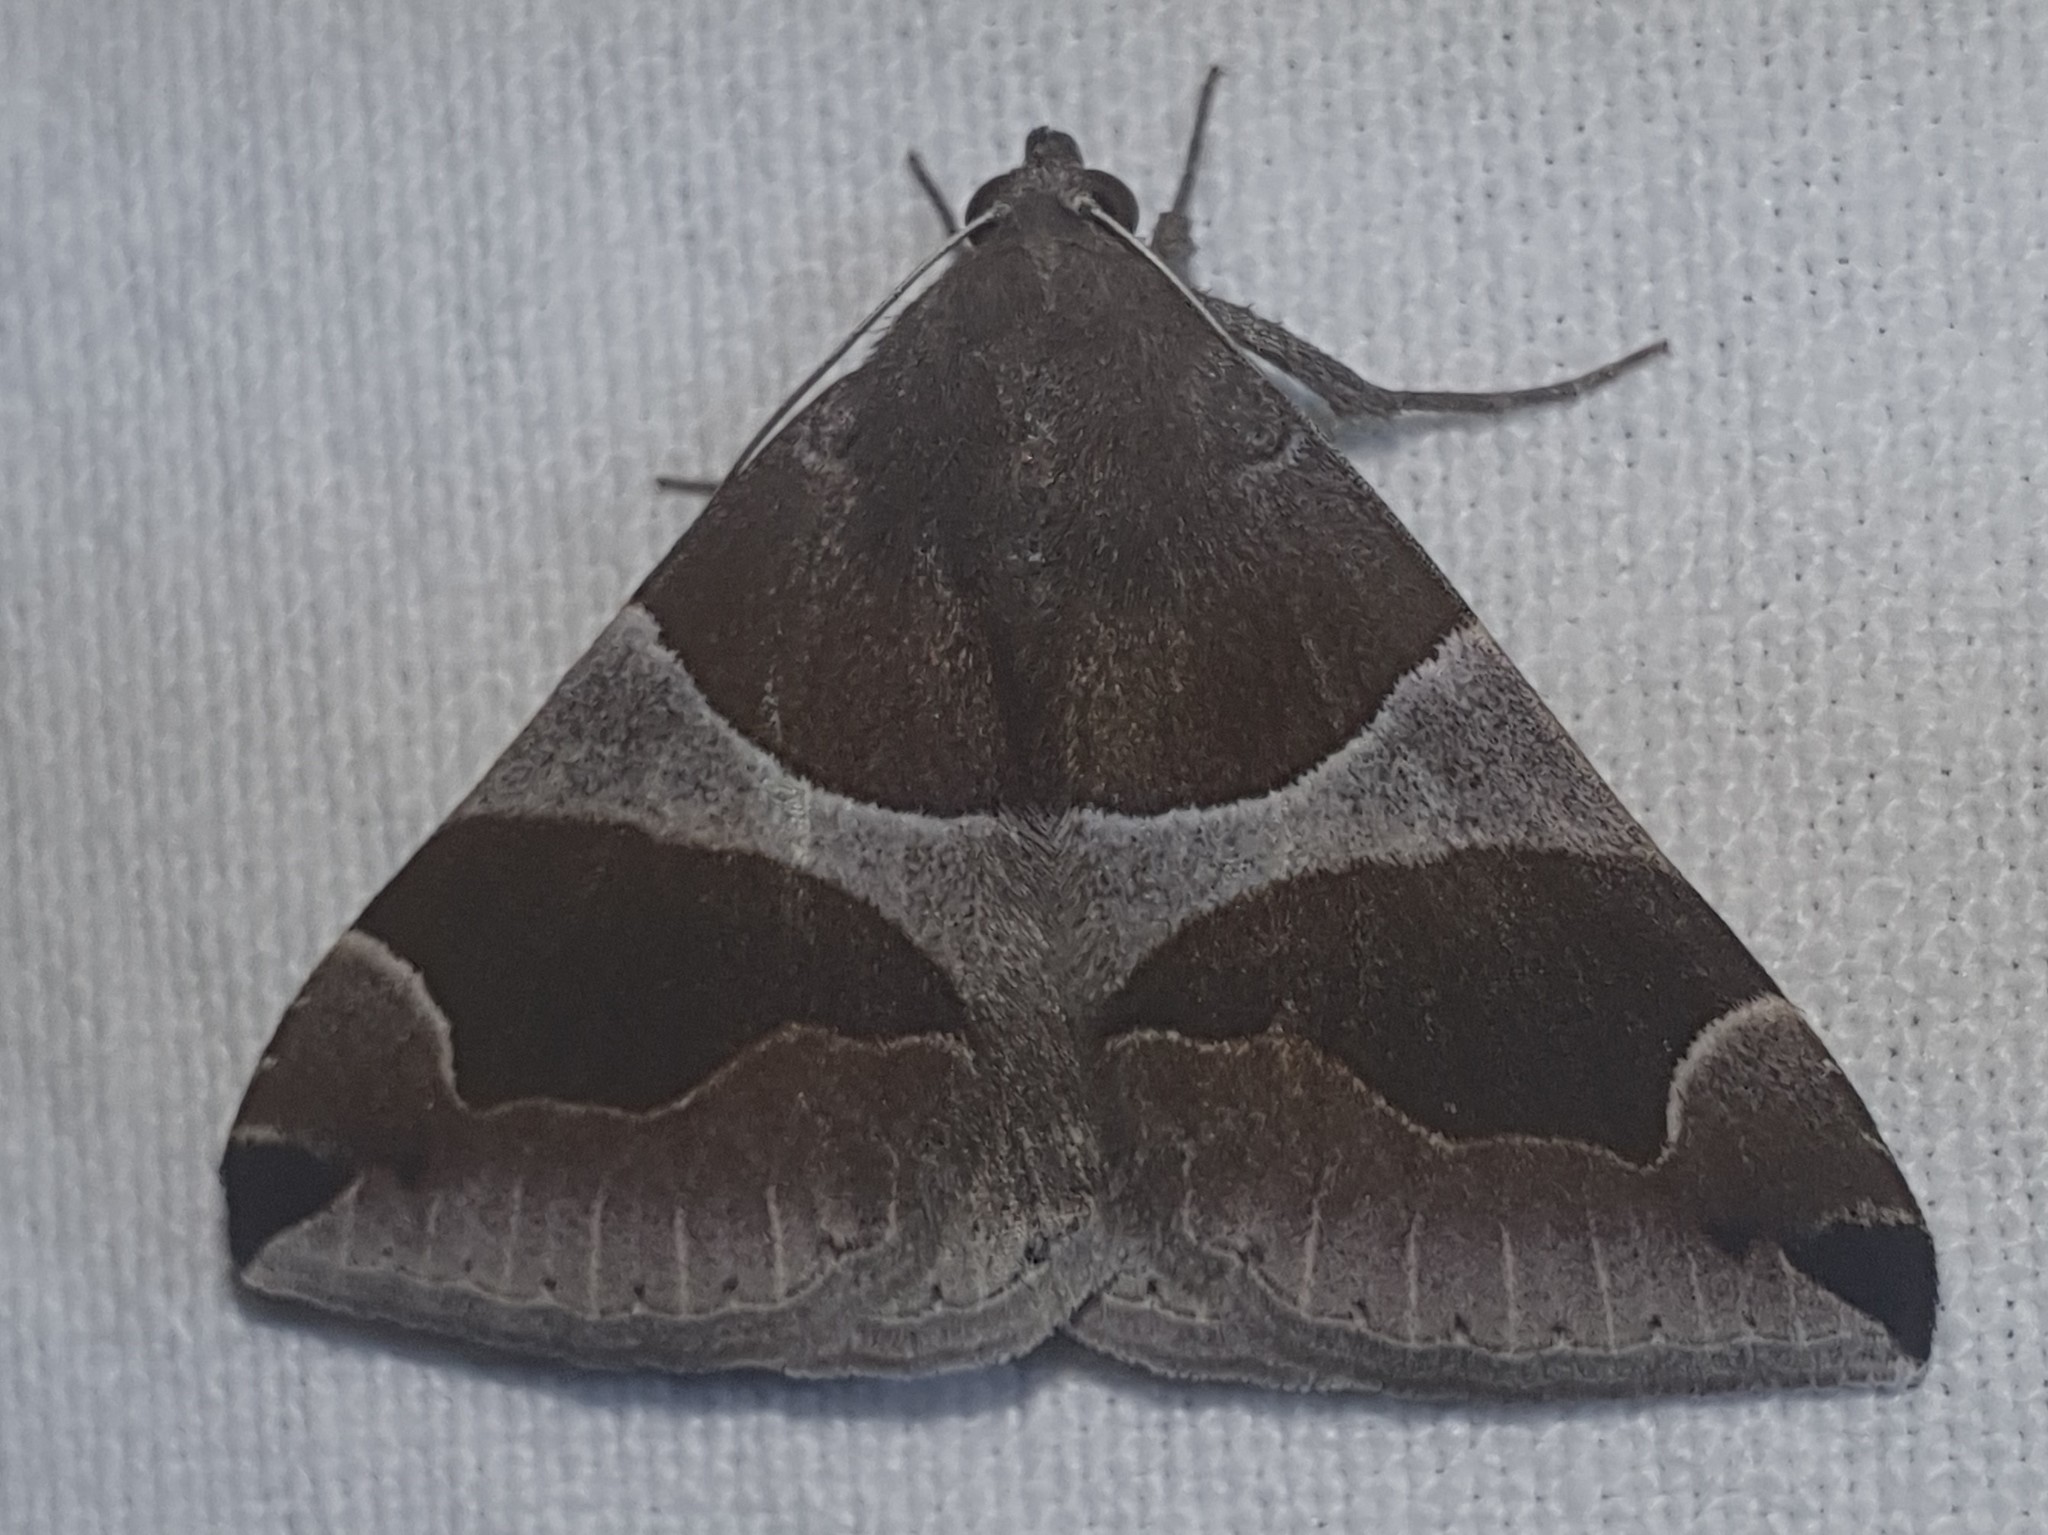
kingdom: Animalia
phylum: Arthropoda
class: Insecta
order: Lepidoptera
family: Erebidae
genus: Dysgonia
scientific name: Dysgonia algira
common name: Passenger
